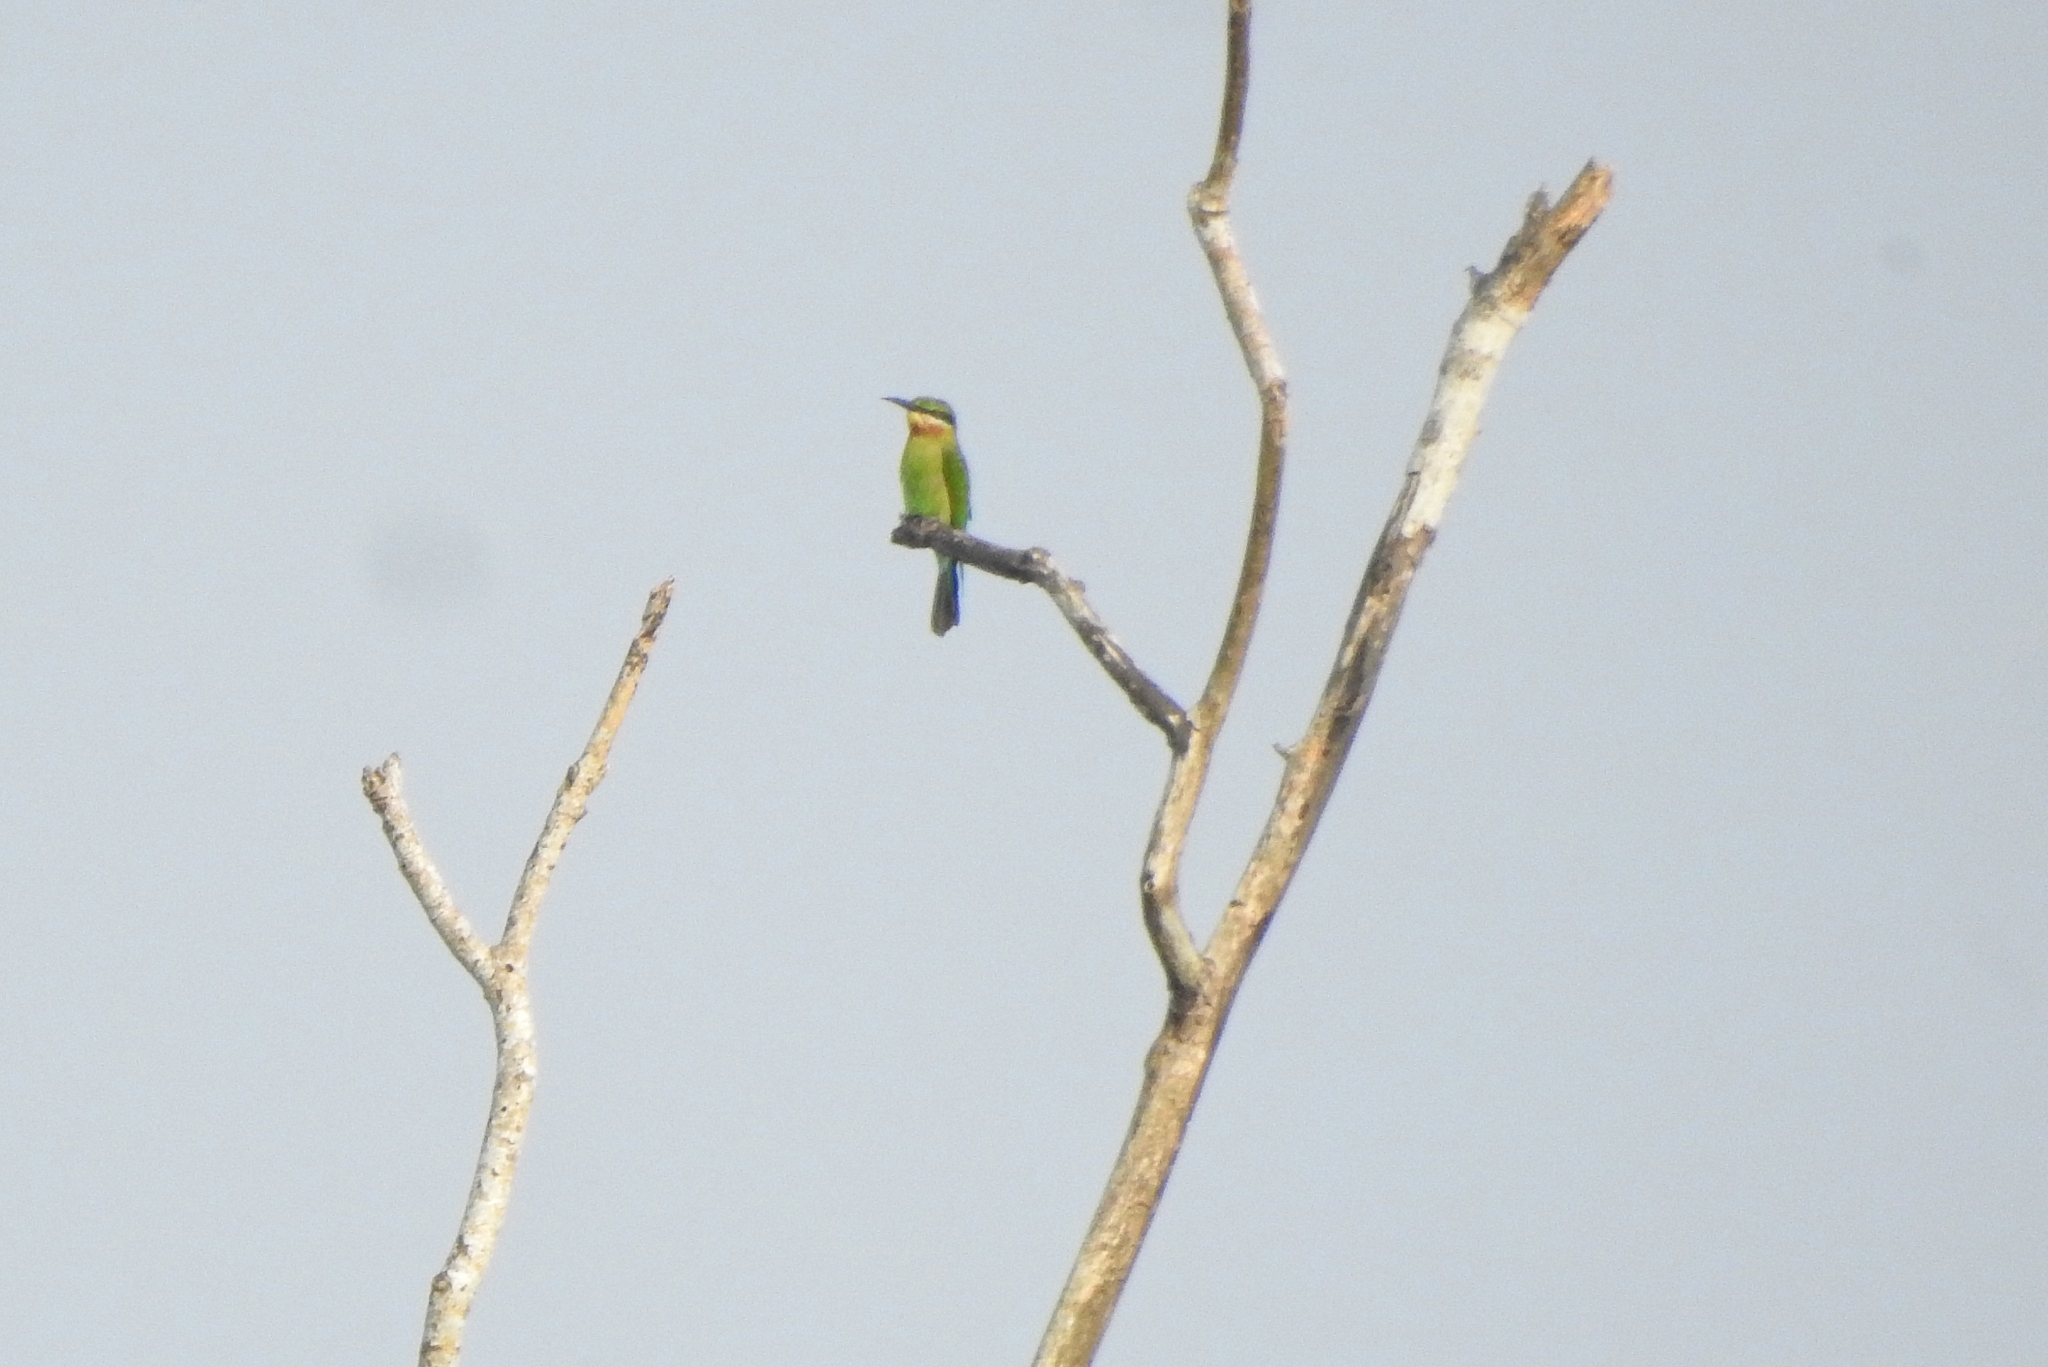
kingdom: Animalia
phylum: Chordata
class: Aves
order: Coraciiformes
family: Meropidae
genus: Merops
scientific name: Merops philippinus
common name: Blue-tailed bee-eater
